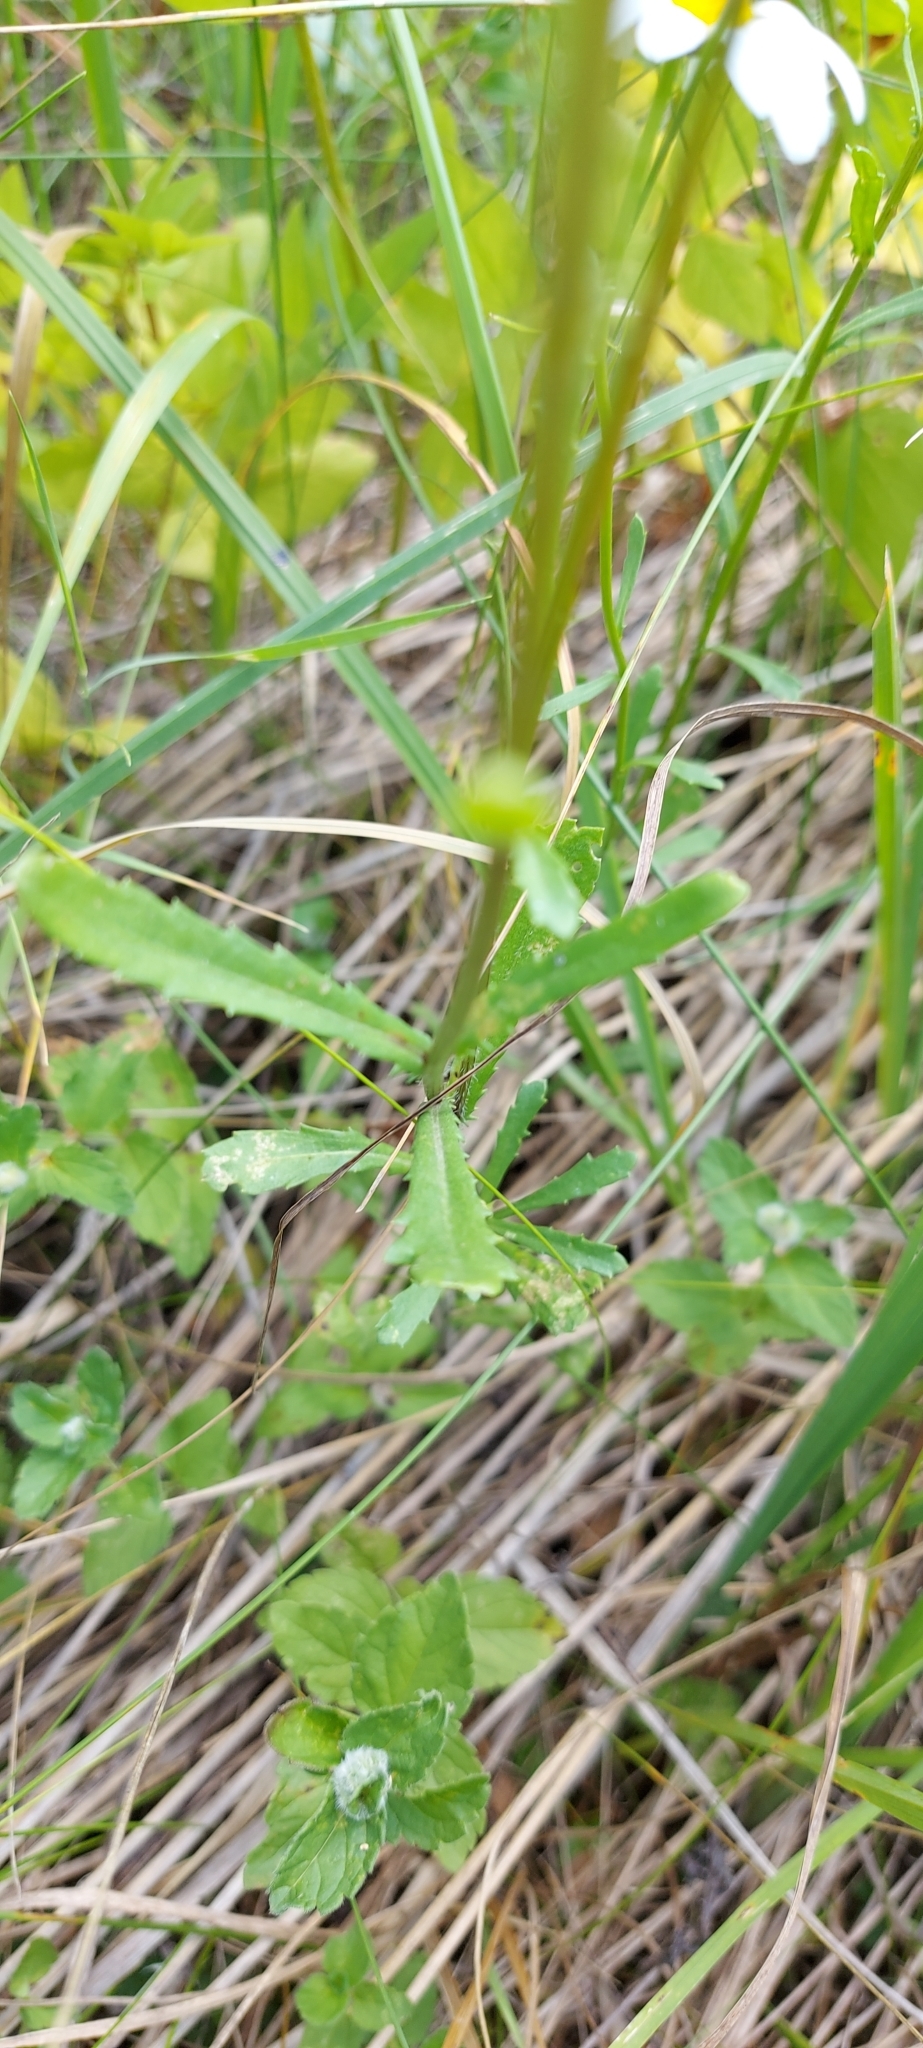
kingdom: Plantae
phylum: Tracheophyta
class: Magnoliopsida
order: Asterales
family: Asteraceae
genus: Leucanthemum
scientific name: Leucanthemum vulgare
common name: Oxeye daisy
